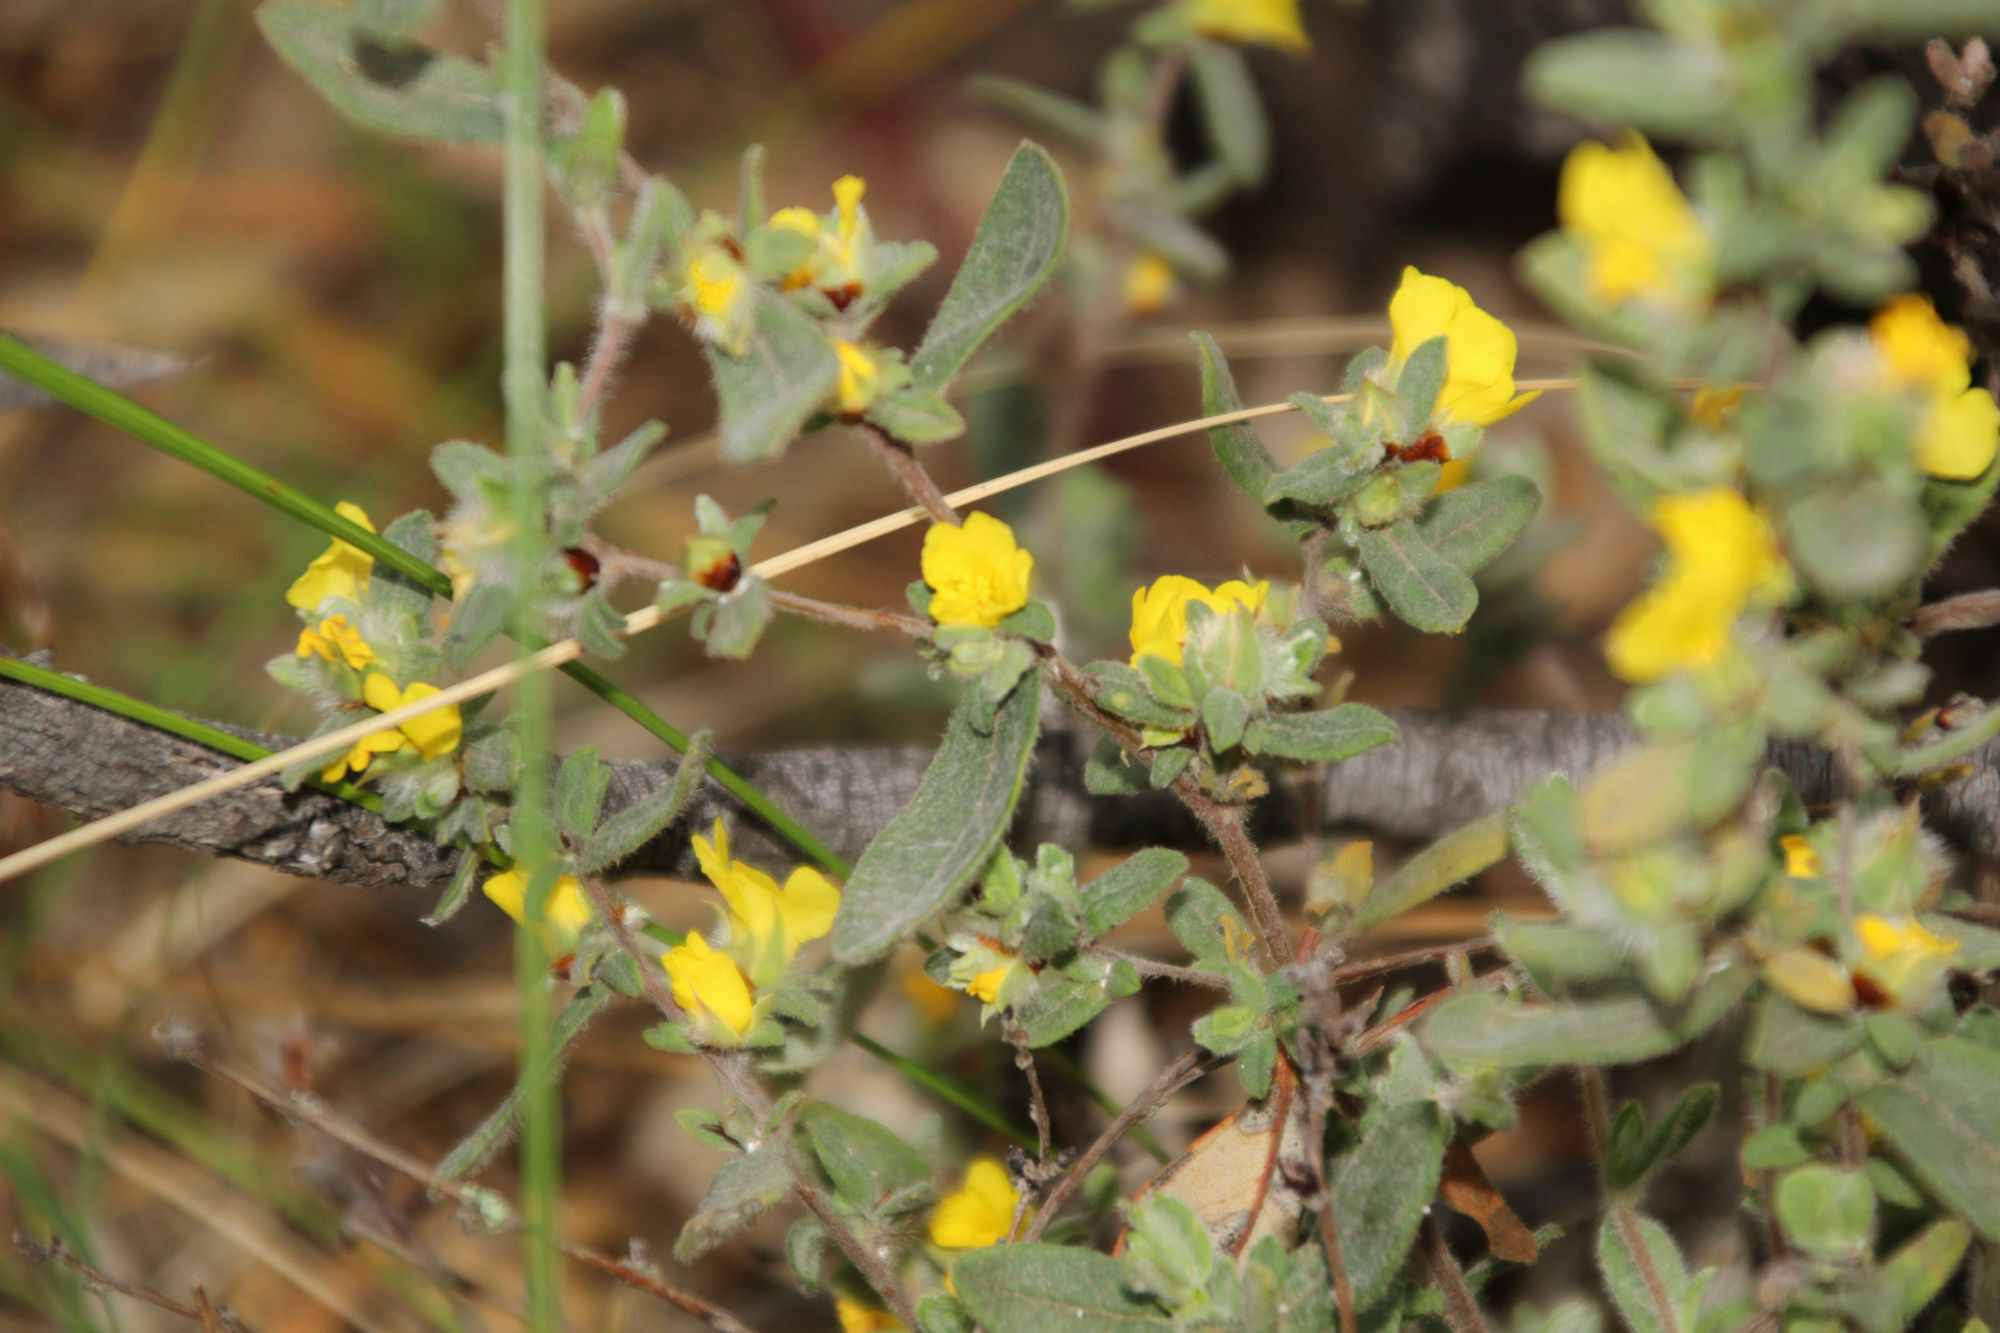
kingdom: Plantae
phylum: Tracheophyta
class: Magnoliopsida
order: Dilleniales
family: Dilleniaceae
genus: Hibbertia
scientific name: Hibbertia commutata
